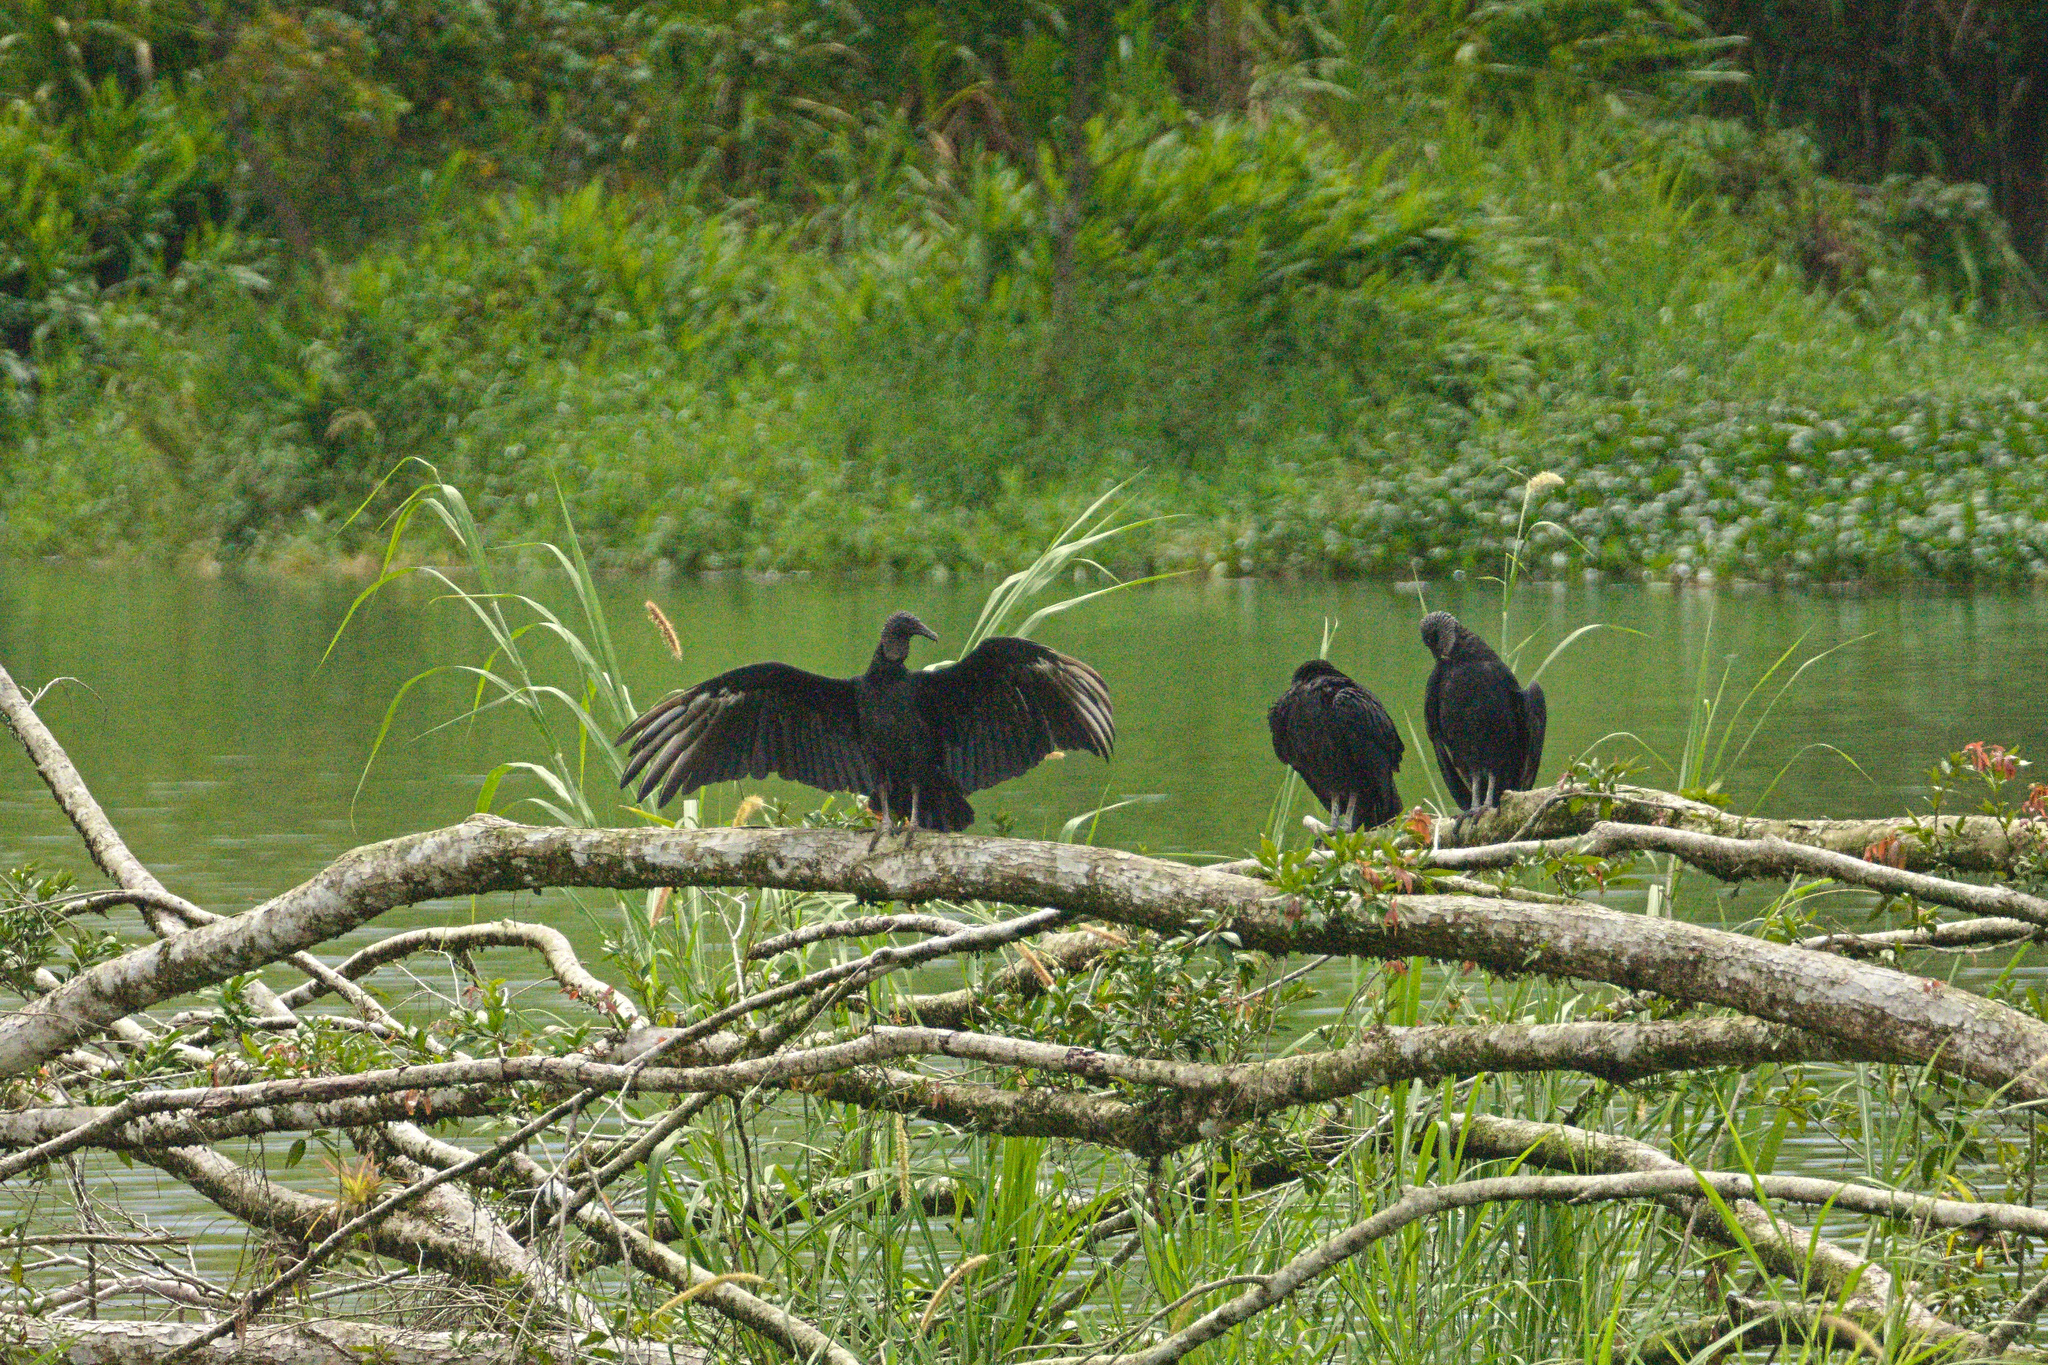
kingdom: Animalia
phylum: Chordata
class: Aves
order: Accipitriformes
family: Cathartidae
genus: Coragyps
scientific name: Coragyps atratus
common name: Black vulture
